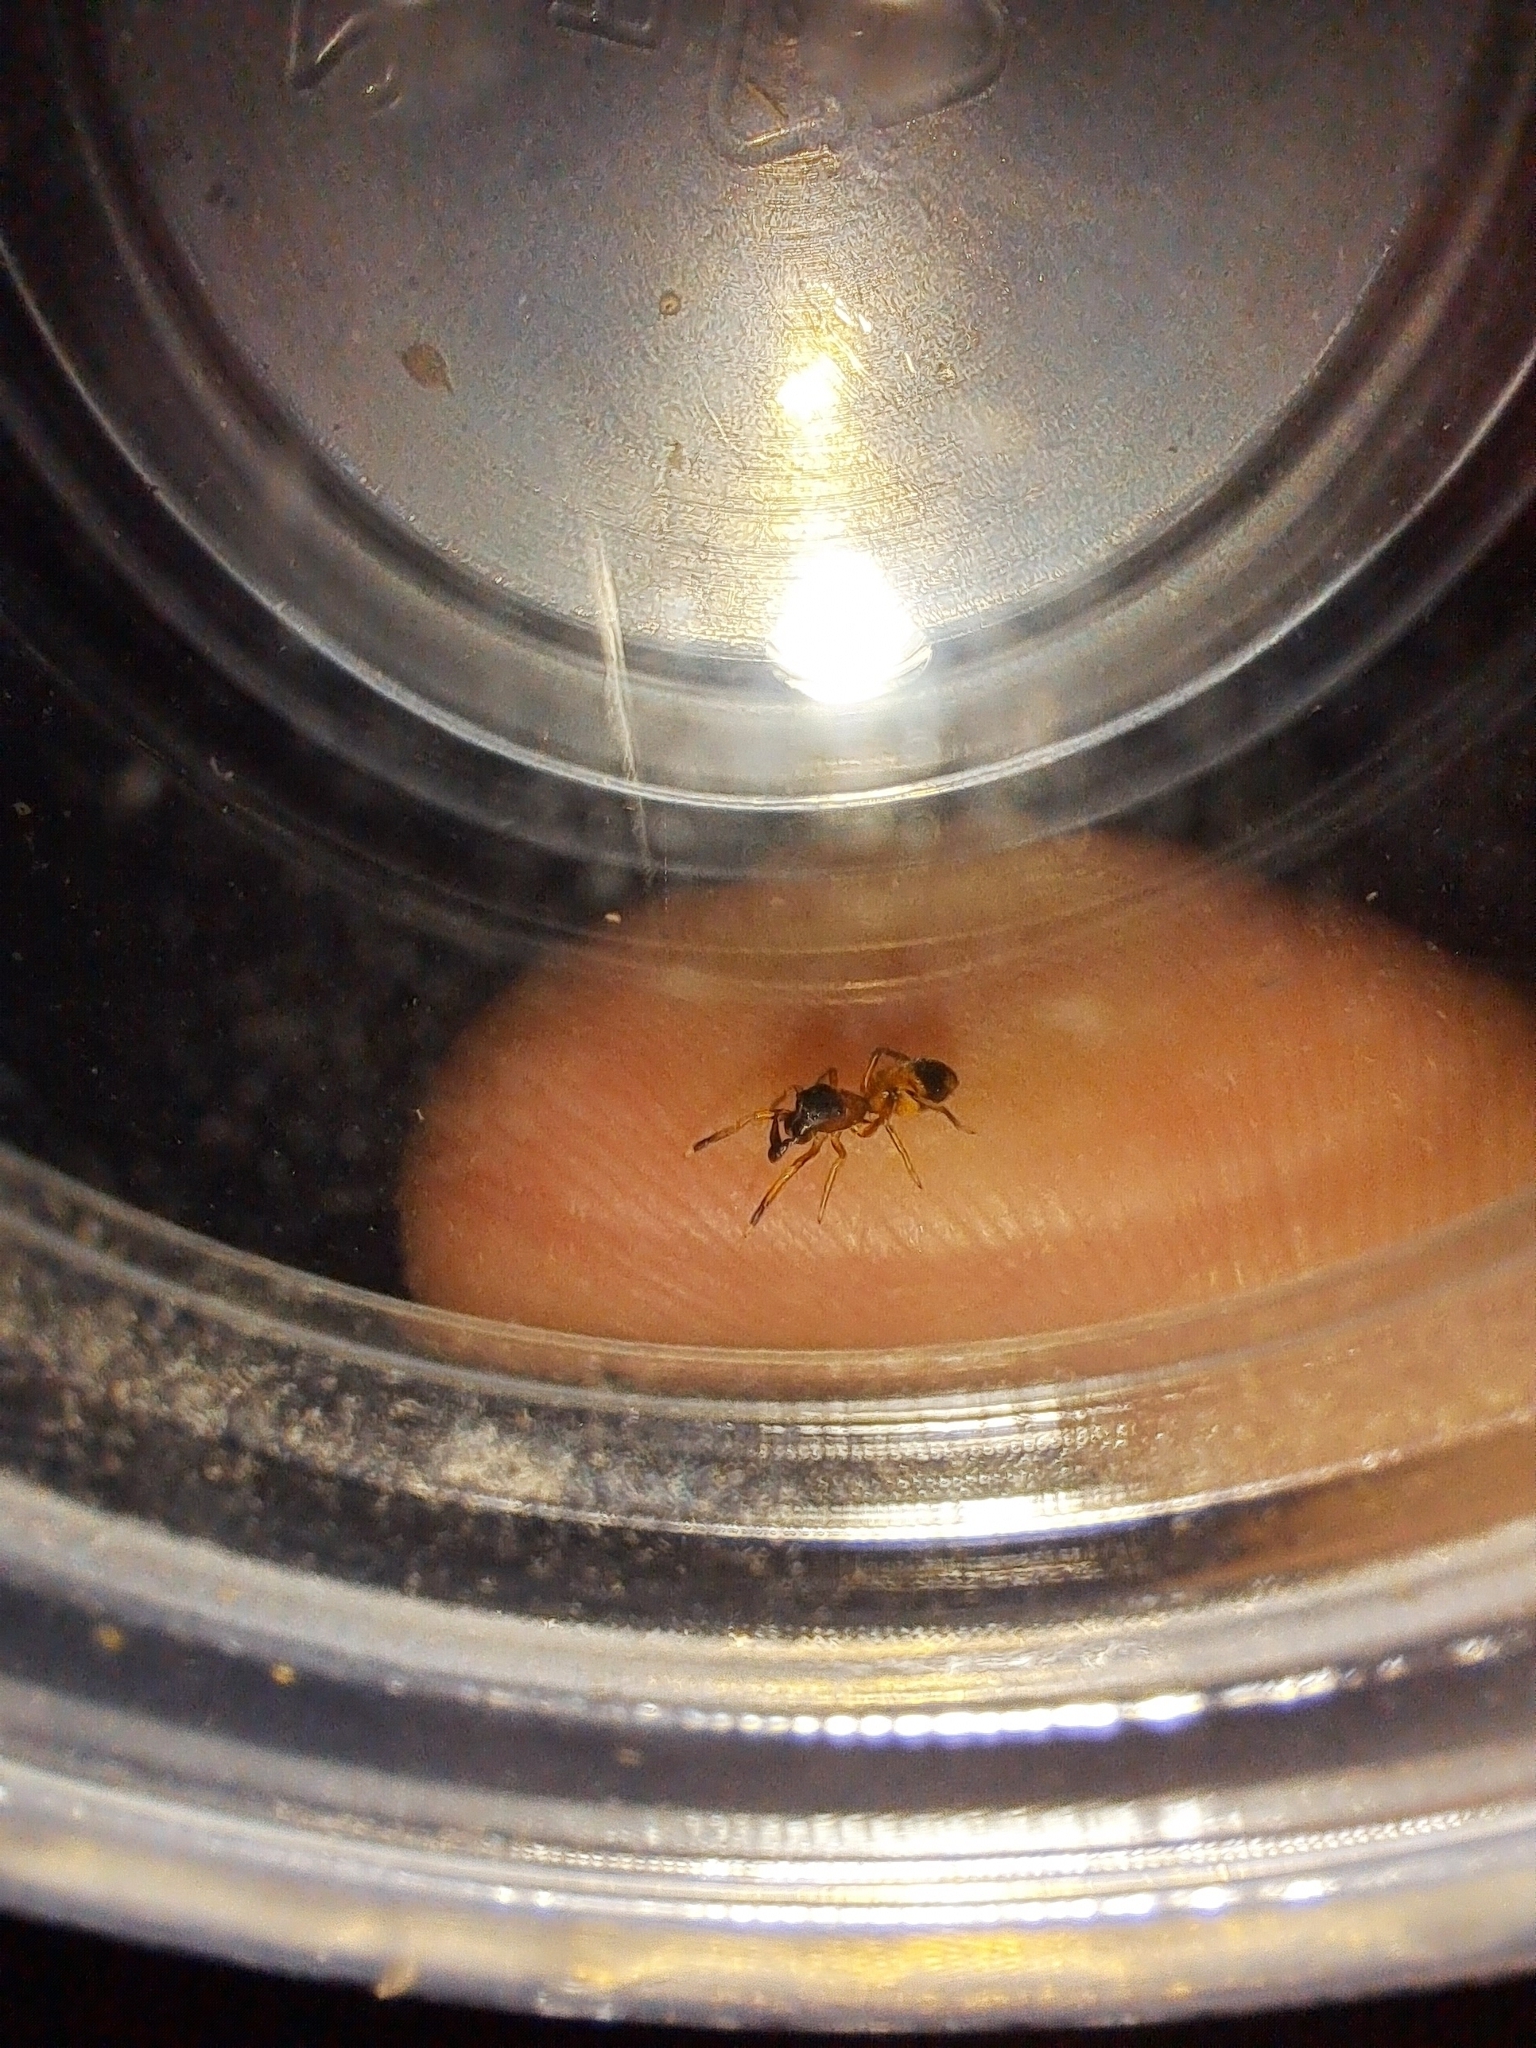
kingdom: Animalia
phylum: Arthropoda
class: Arachnida
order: Araneae
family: Salticidae
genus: Myrmarachne
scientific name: Myrmarachne formicaria
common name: Ant mimic jumping spider
